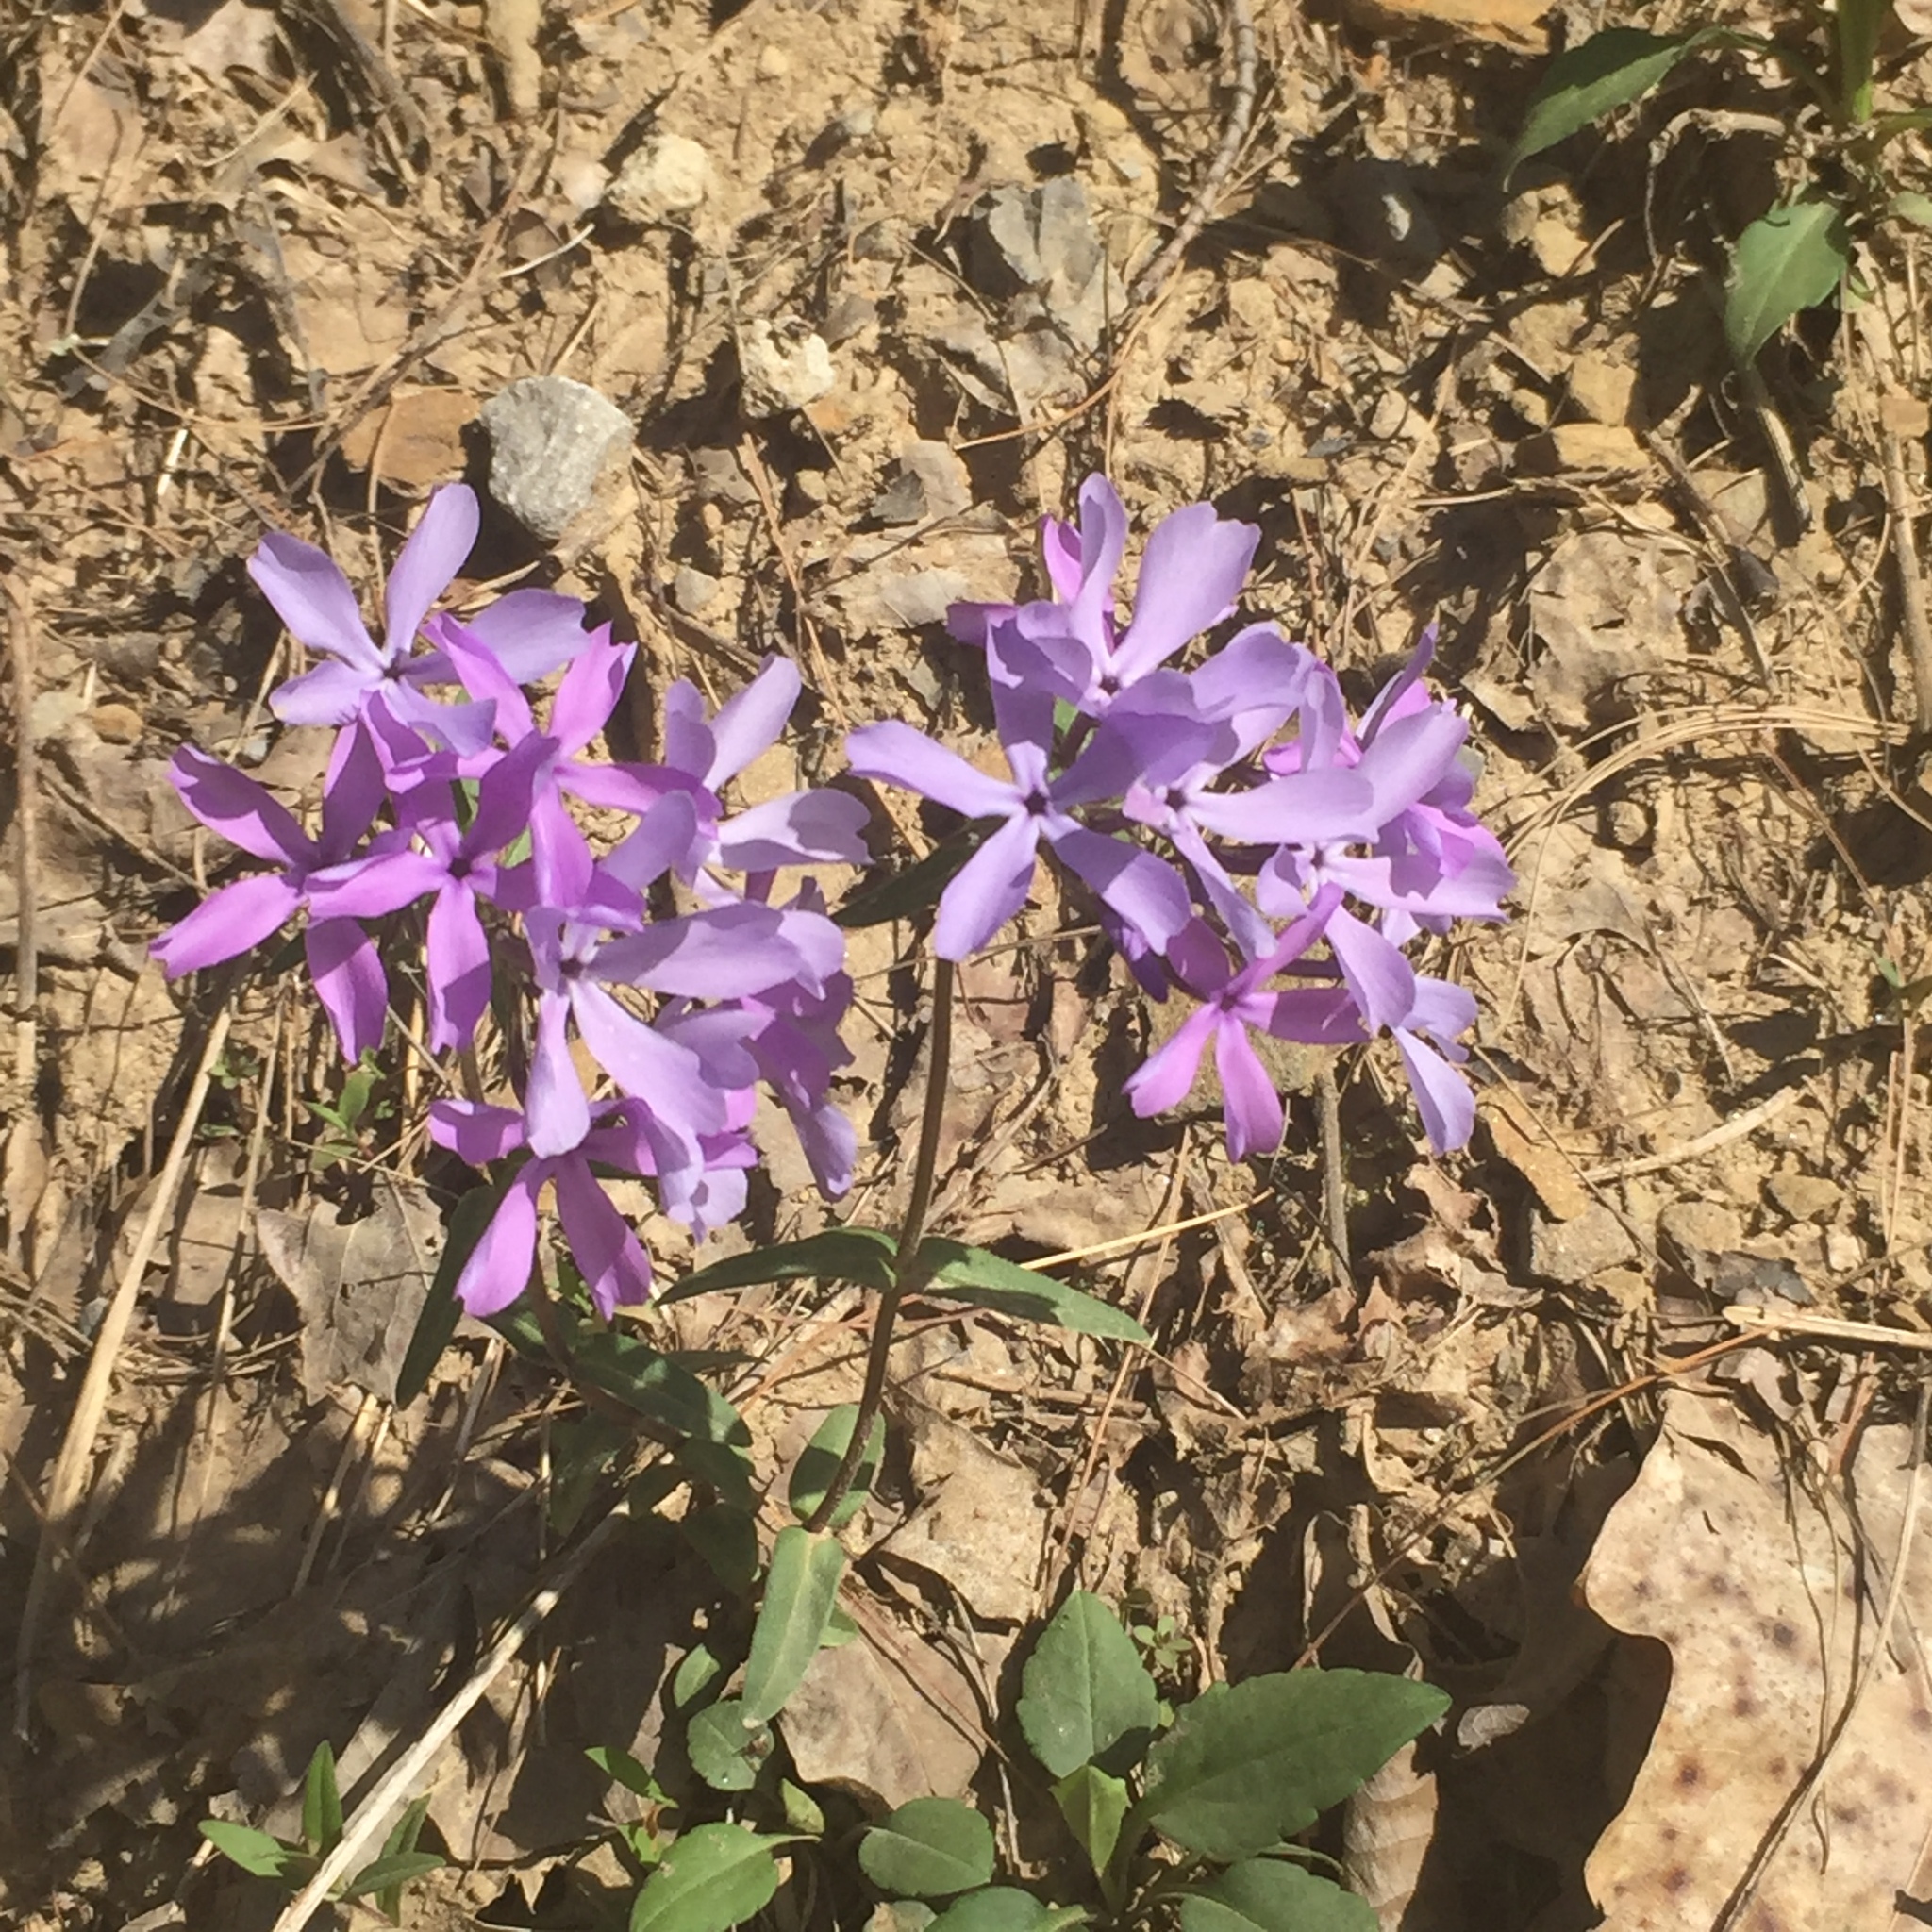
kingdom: Plantae
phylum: Tracheophyta
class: Magnoliopsida
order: Ericales
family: Polemoniaceae
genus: Phlox
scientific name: Phlox divaricata
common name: Blue phlox
